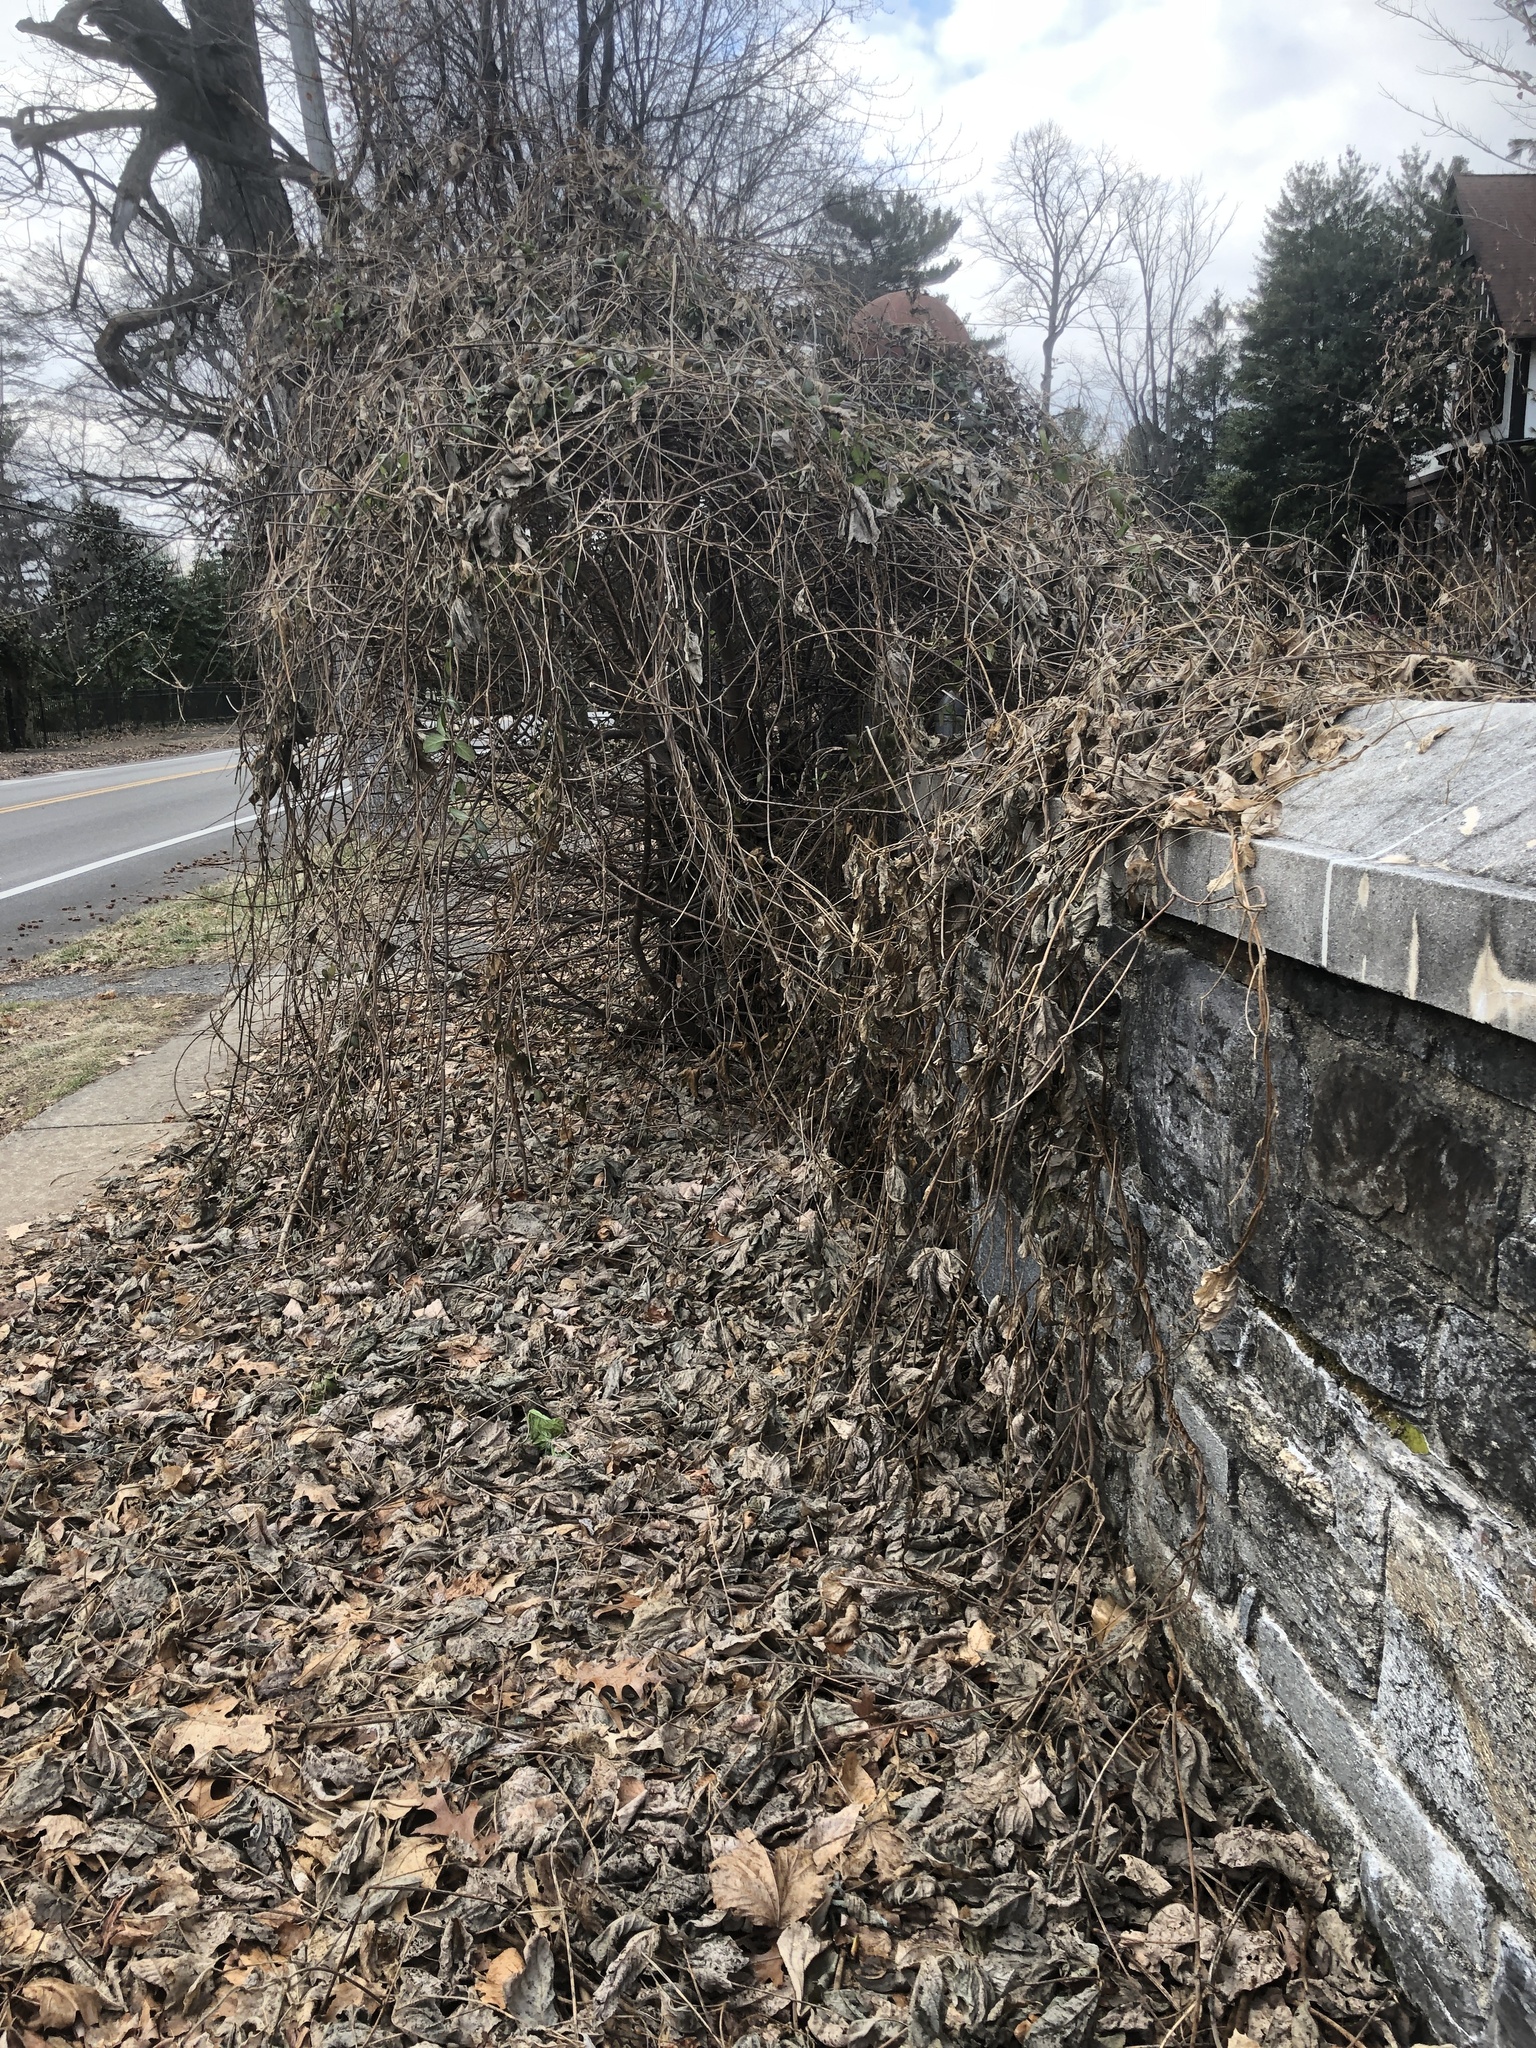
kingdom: Plantae
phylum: Tracheophyta
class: Magnoliopsida
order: Fabales
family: Fabaceae
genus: Pueraria
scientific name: Pueraria montana
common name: Kudzu
